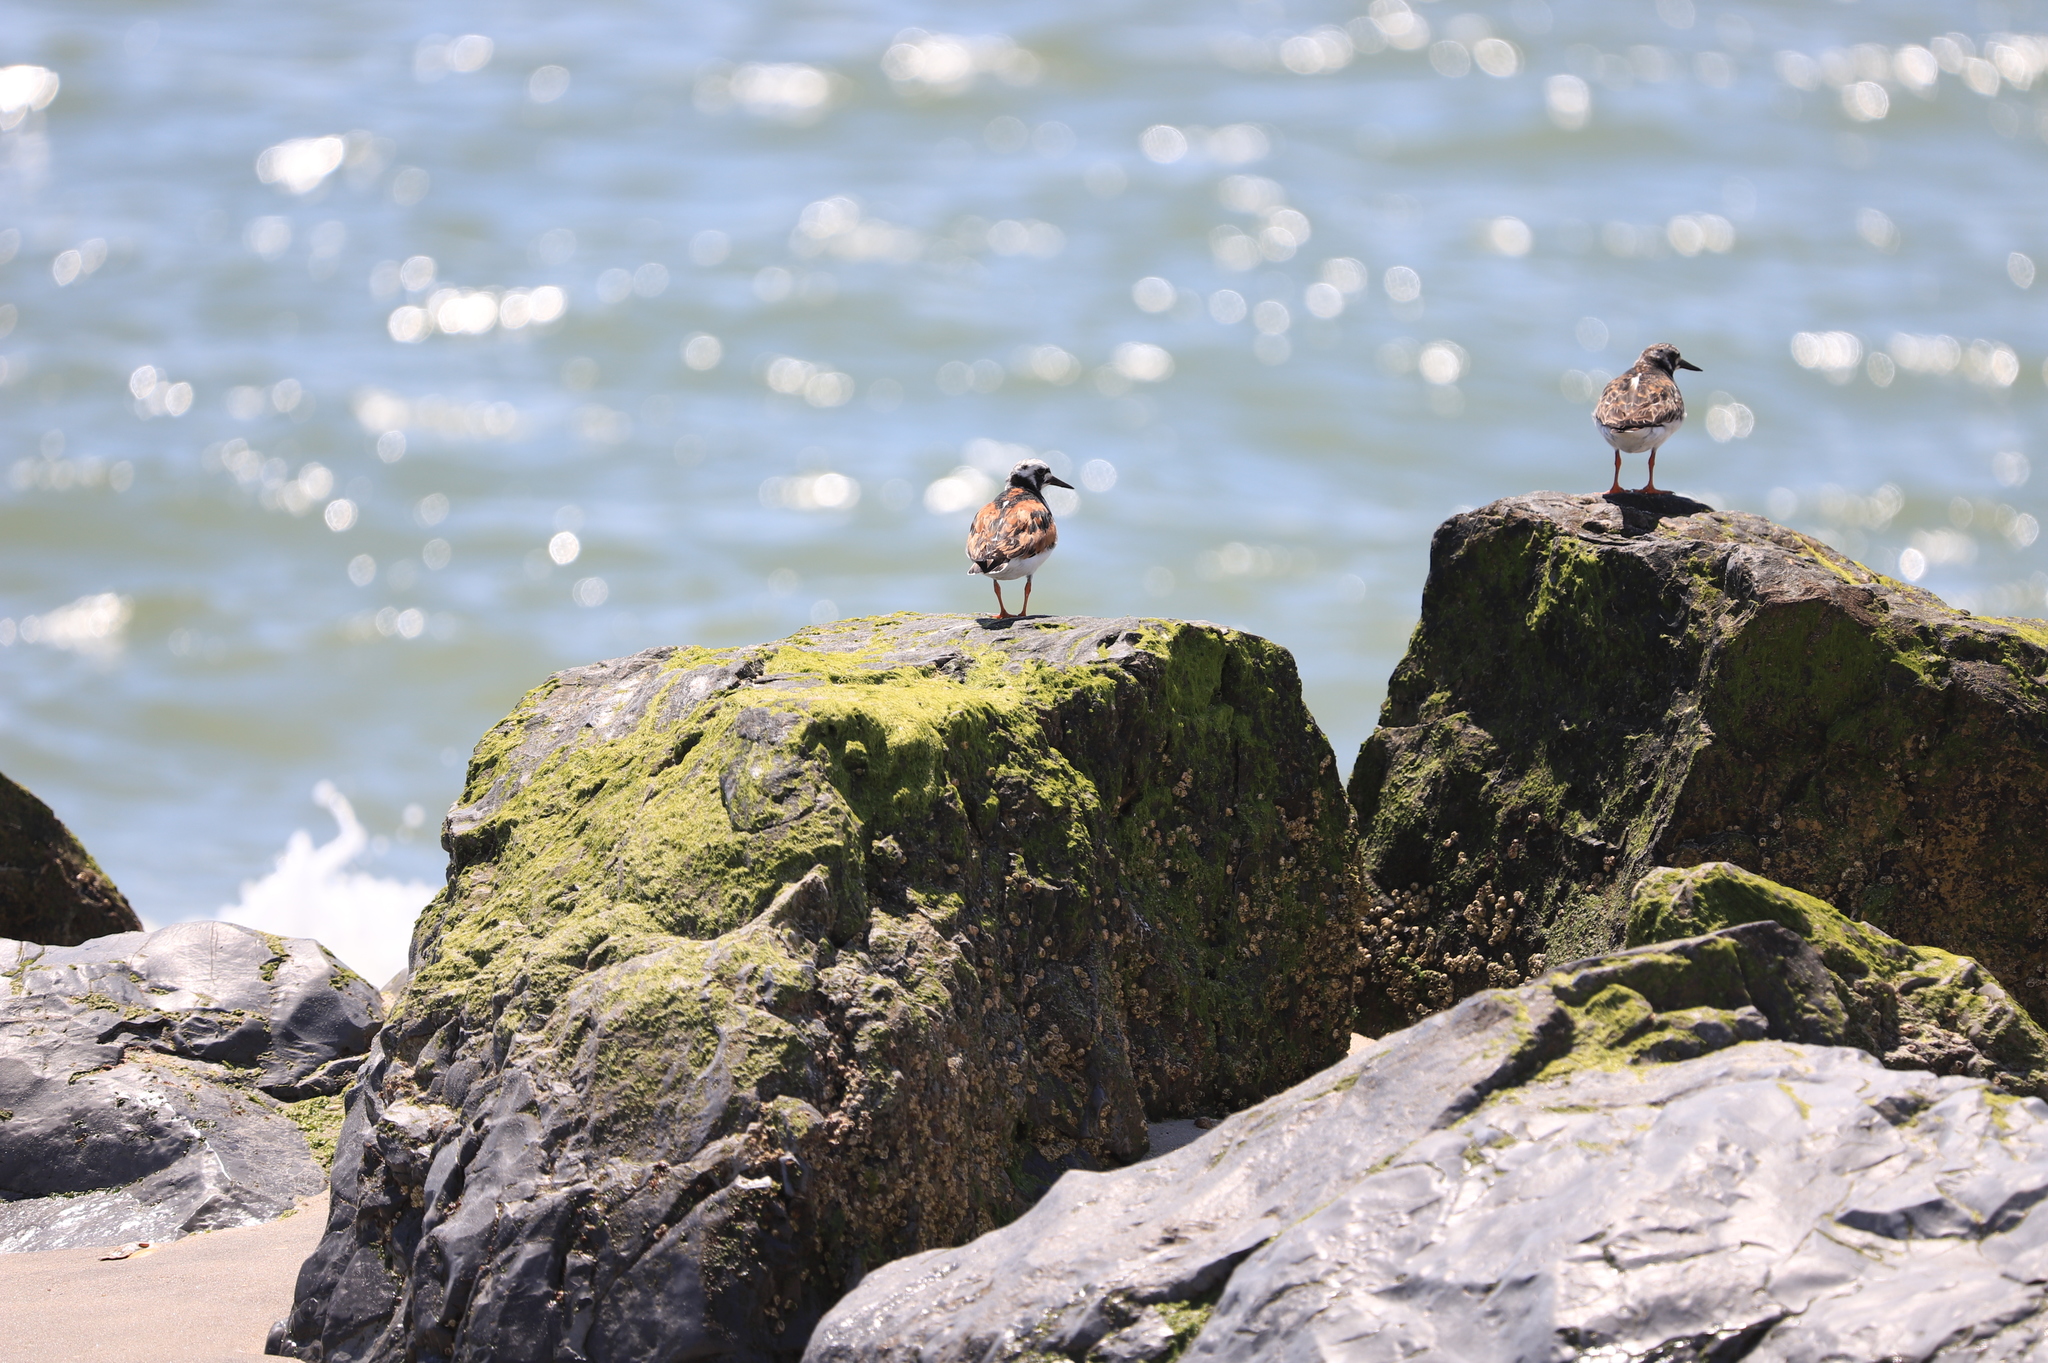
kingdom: Animalia
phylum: Chordata
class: Aves
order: Charadriiformes
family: Scolopacidae
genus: Arenaria
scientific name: Arenaria interpres
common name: Ruddy turnstone
